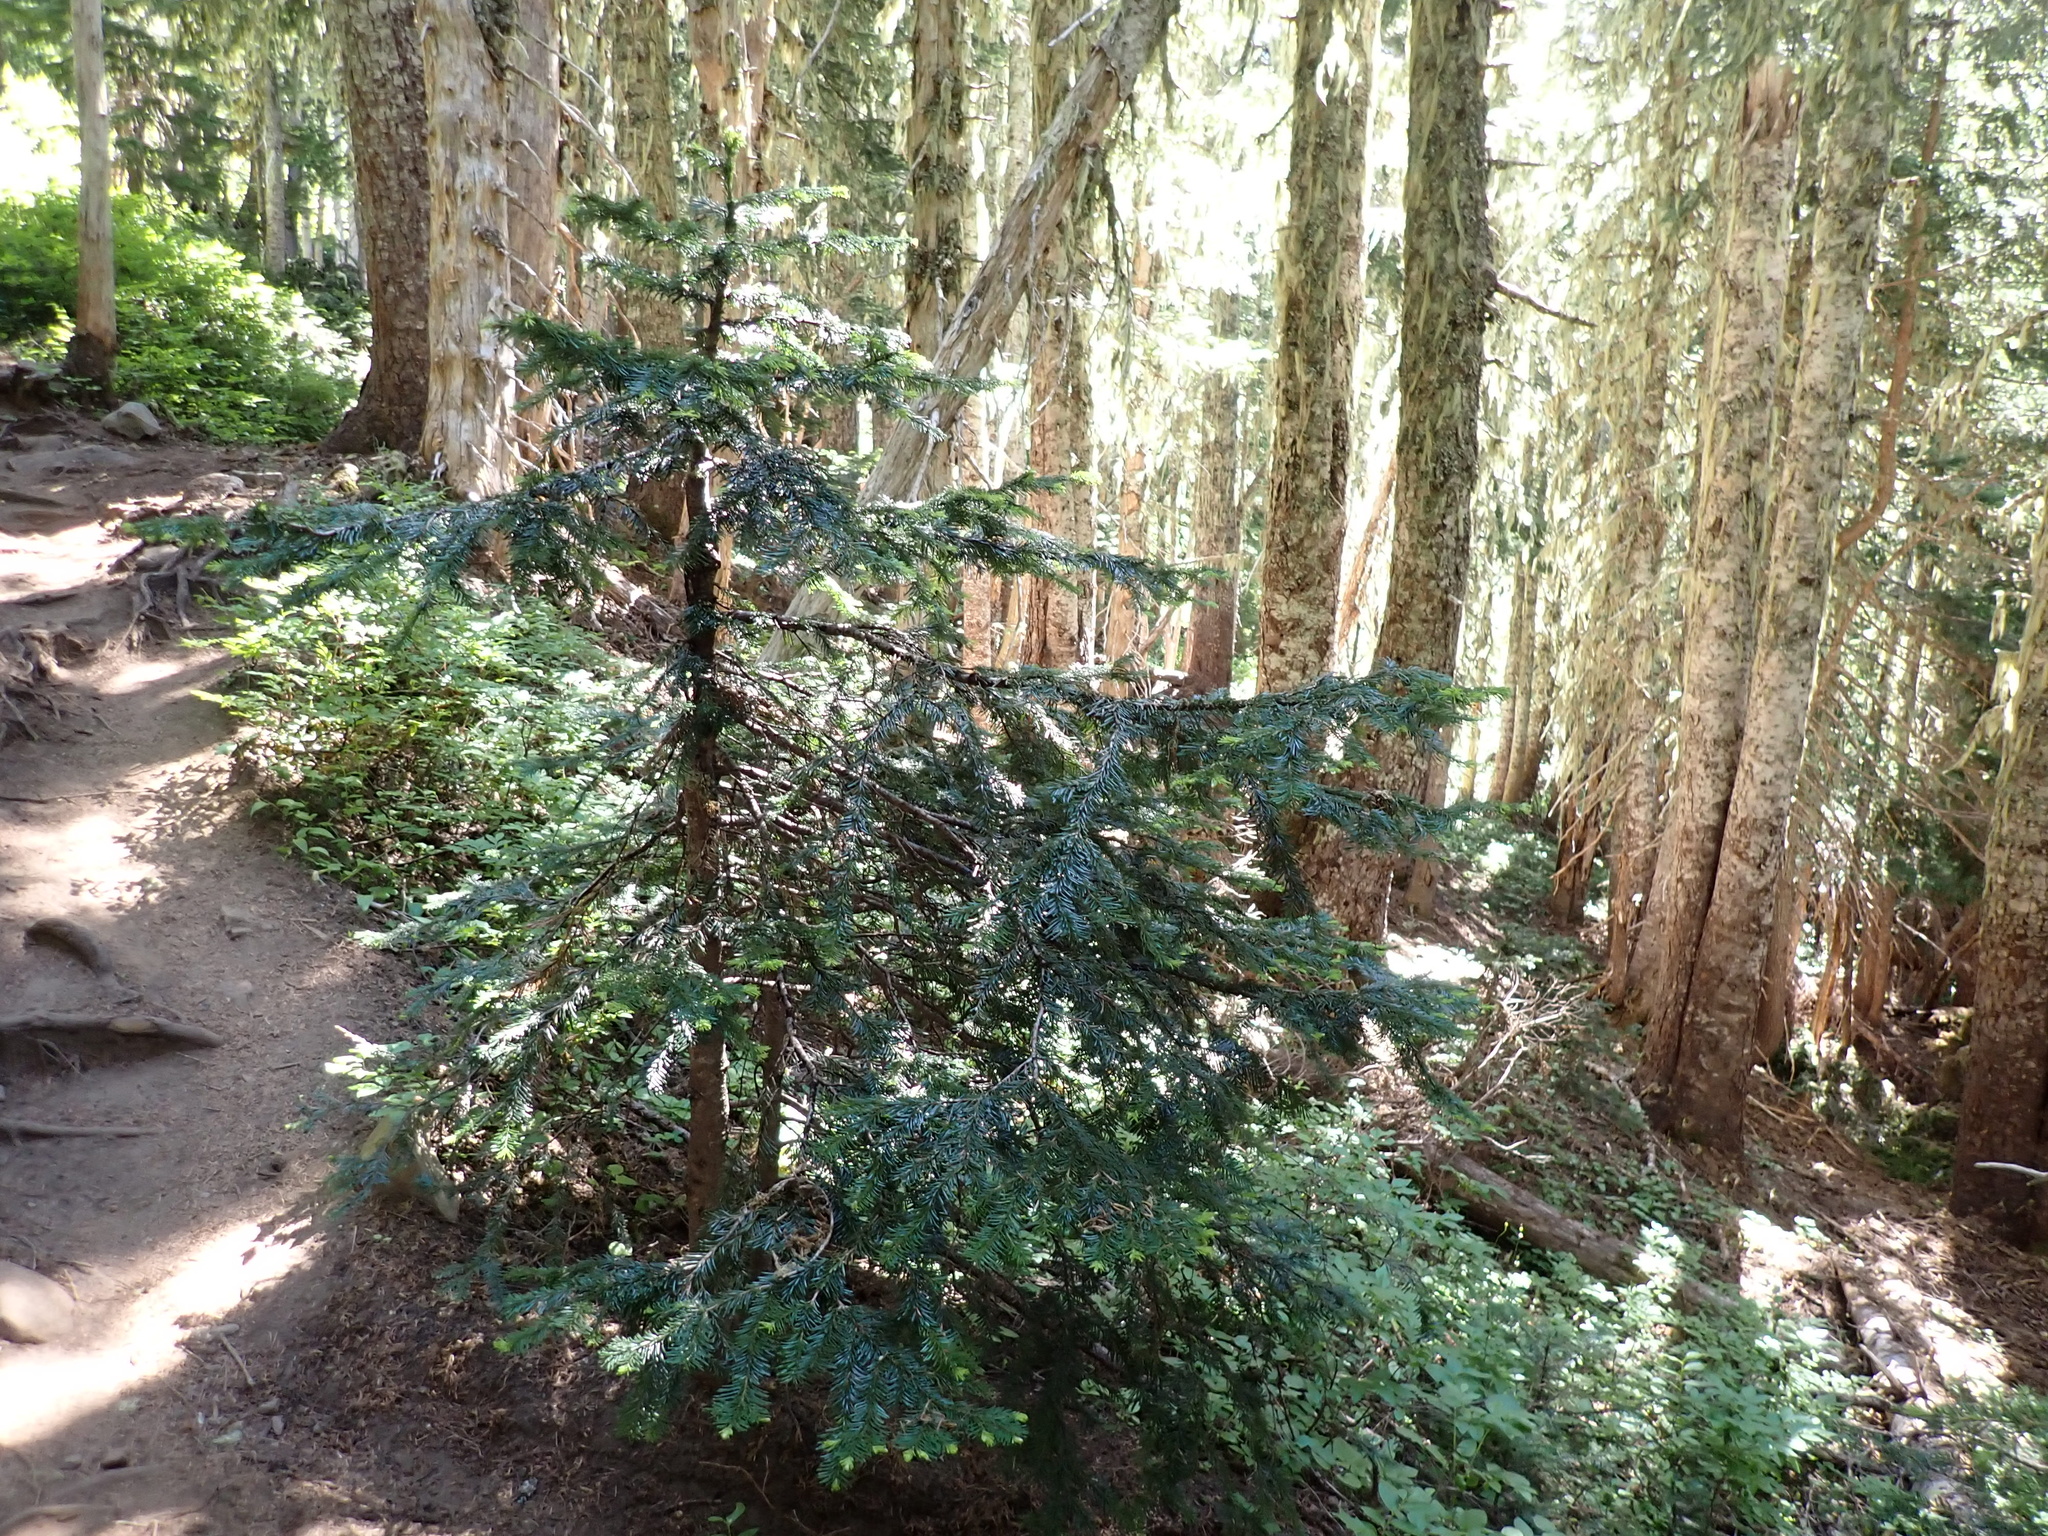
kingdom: Plantae
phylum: Tracheophyta
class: Pinopsida
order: Pinales
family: Pinaceae
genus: Abies
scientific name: Abies amabilis
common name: Pacific silver fir
